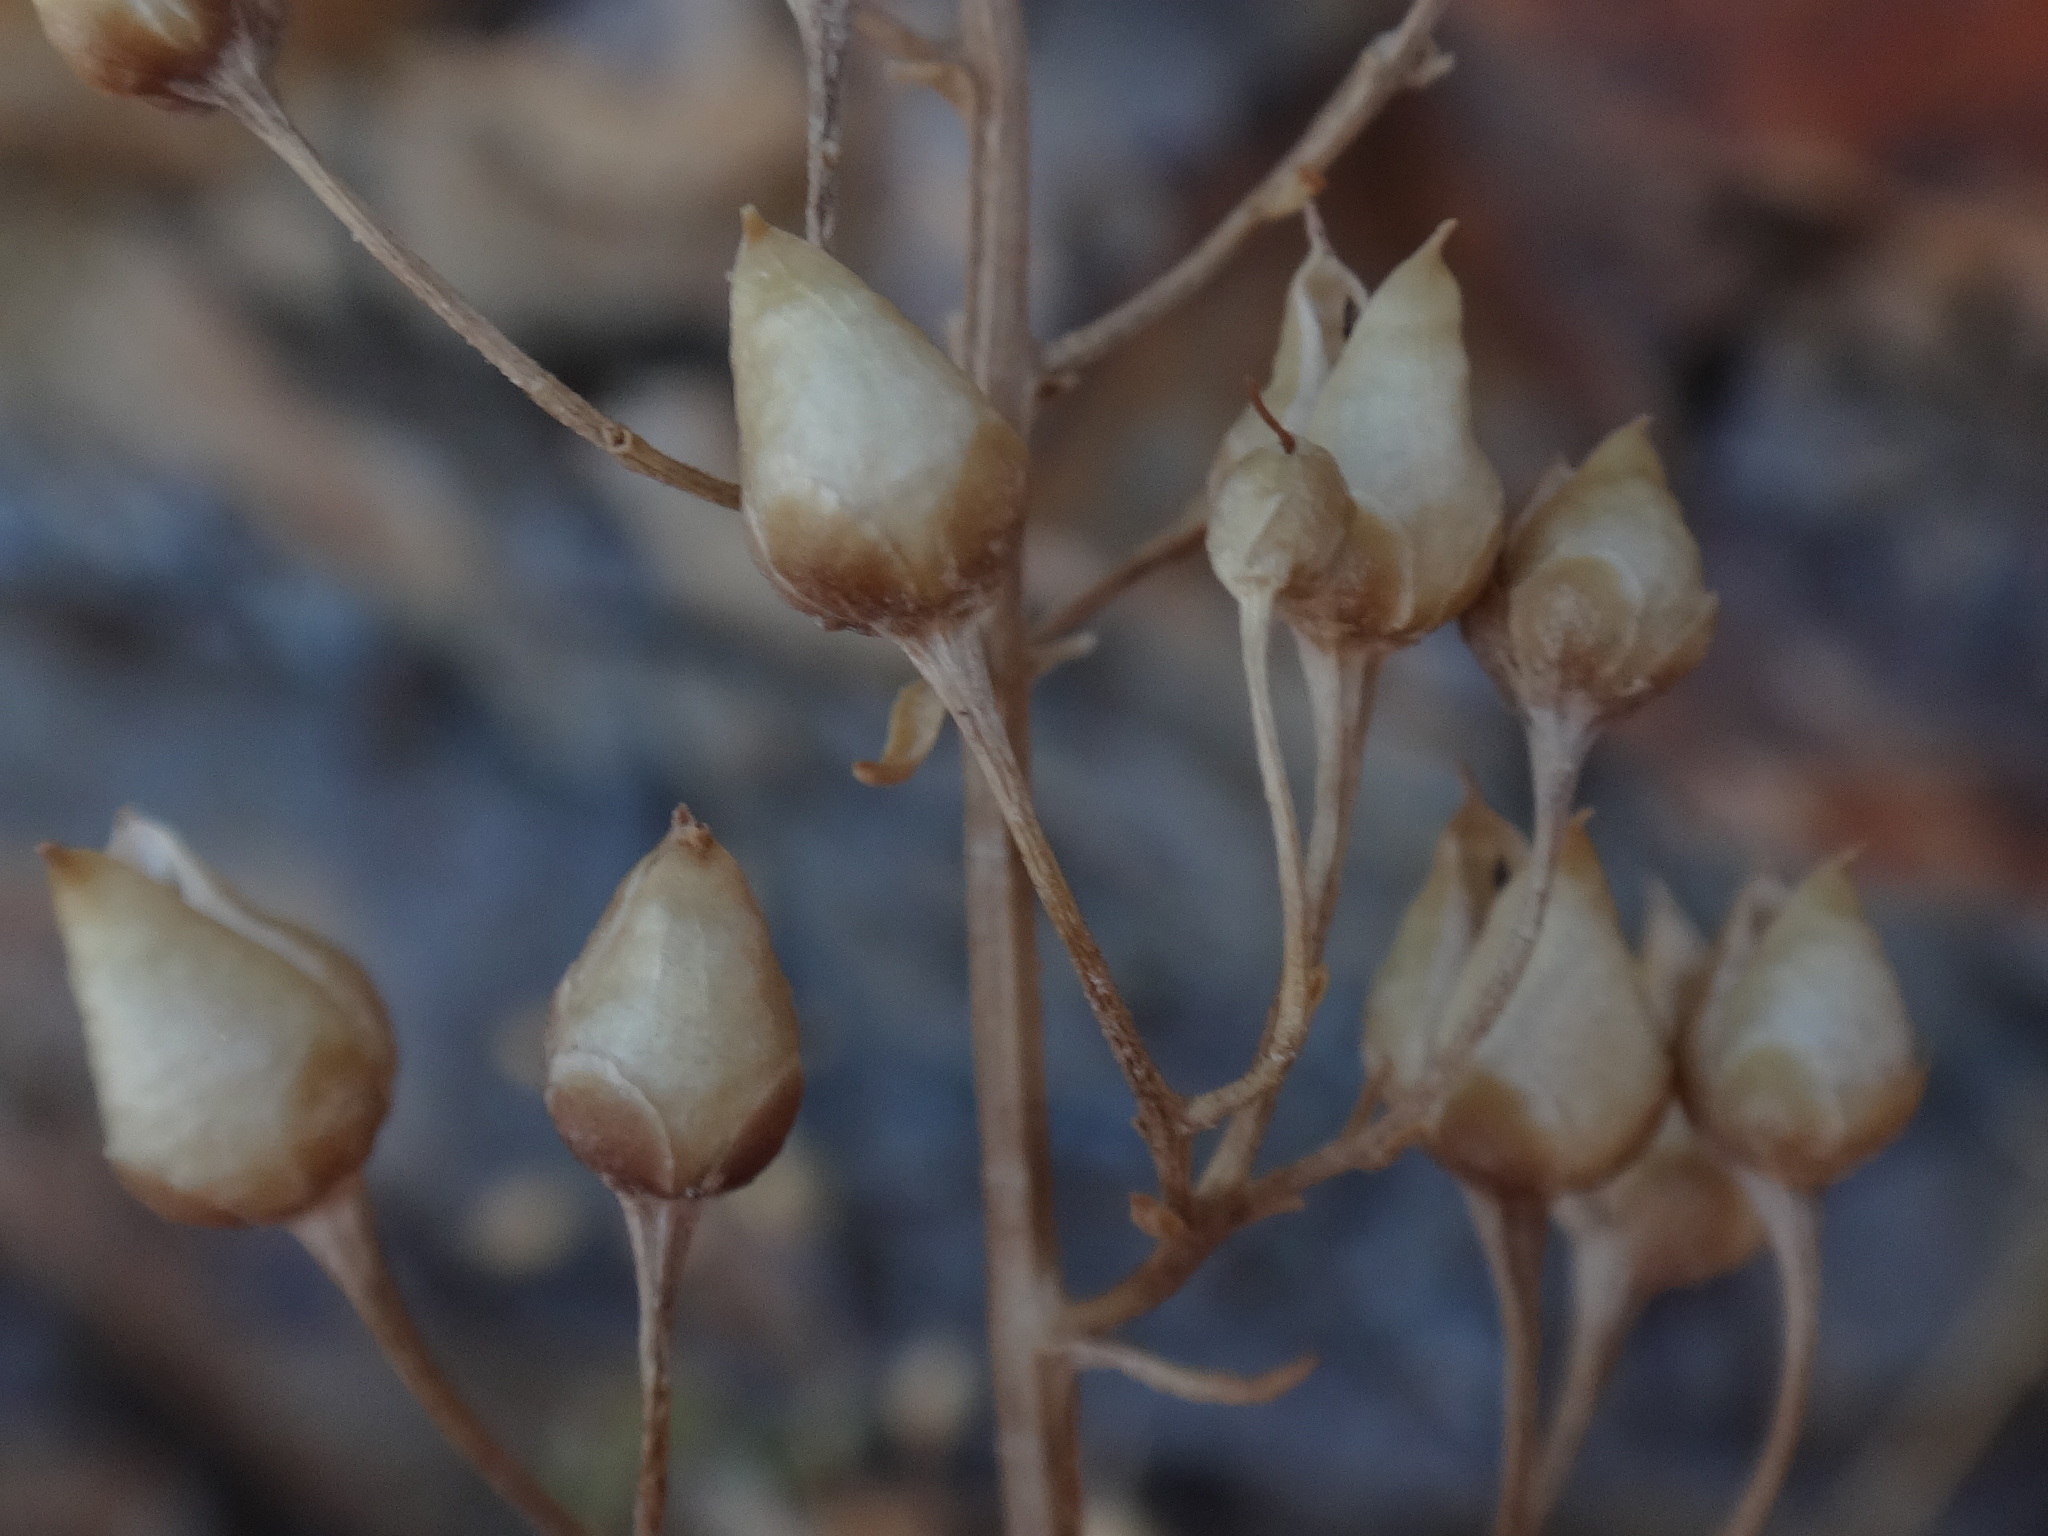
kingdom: Plantae
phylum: Tracheophyta
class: Magnoliopsida
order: Lamiales
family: Scrophulariaceae
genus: Scrophularia
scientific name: Scrophularia glabrata
